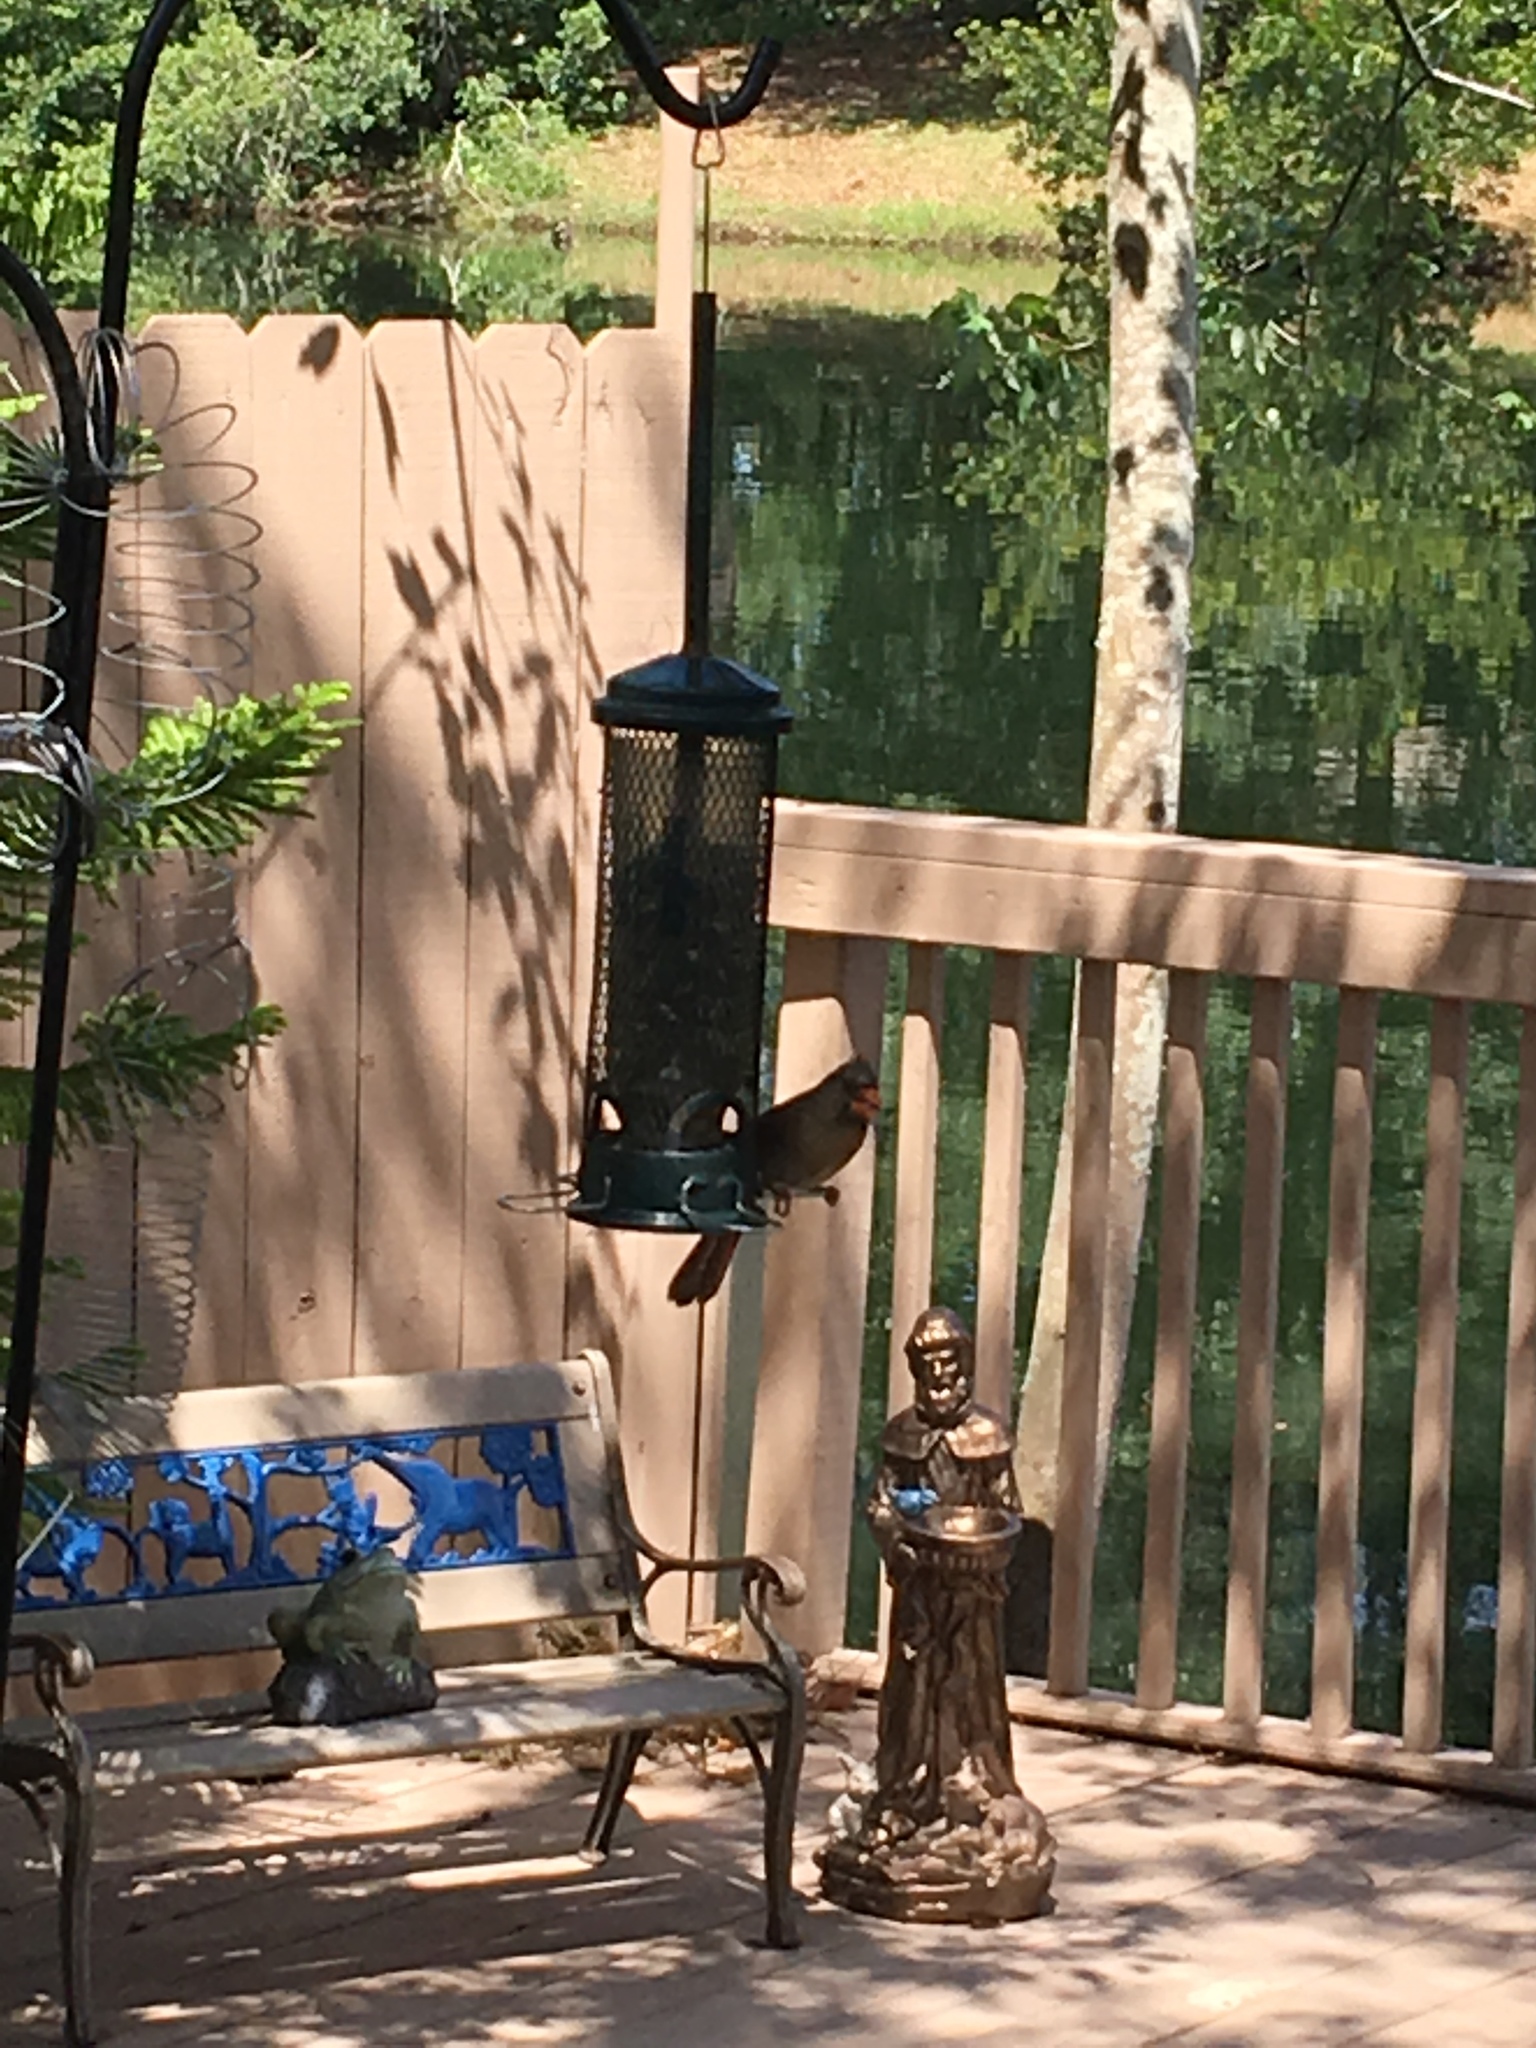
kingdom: Animalia
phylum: Chordata
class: Aves
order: Passeriformes
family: Cardinalidae
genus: Cardinalis
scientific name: Cardinalis cardinalis
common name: Northern cardinal
